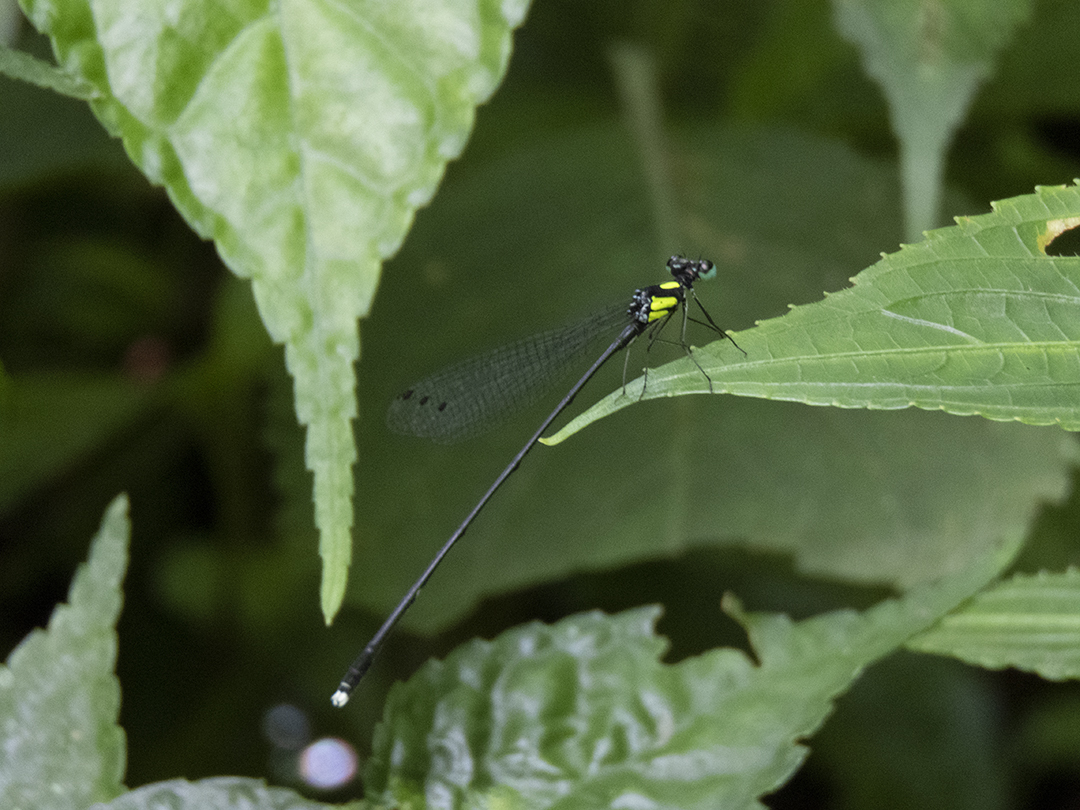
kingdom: Animalia
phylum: Arthropoda
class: Insecta
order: Odonata
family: Platycnemididae
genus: Coeliccia
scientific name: Coeliccia renifera
